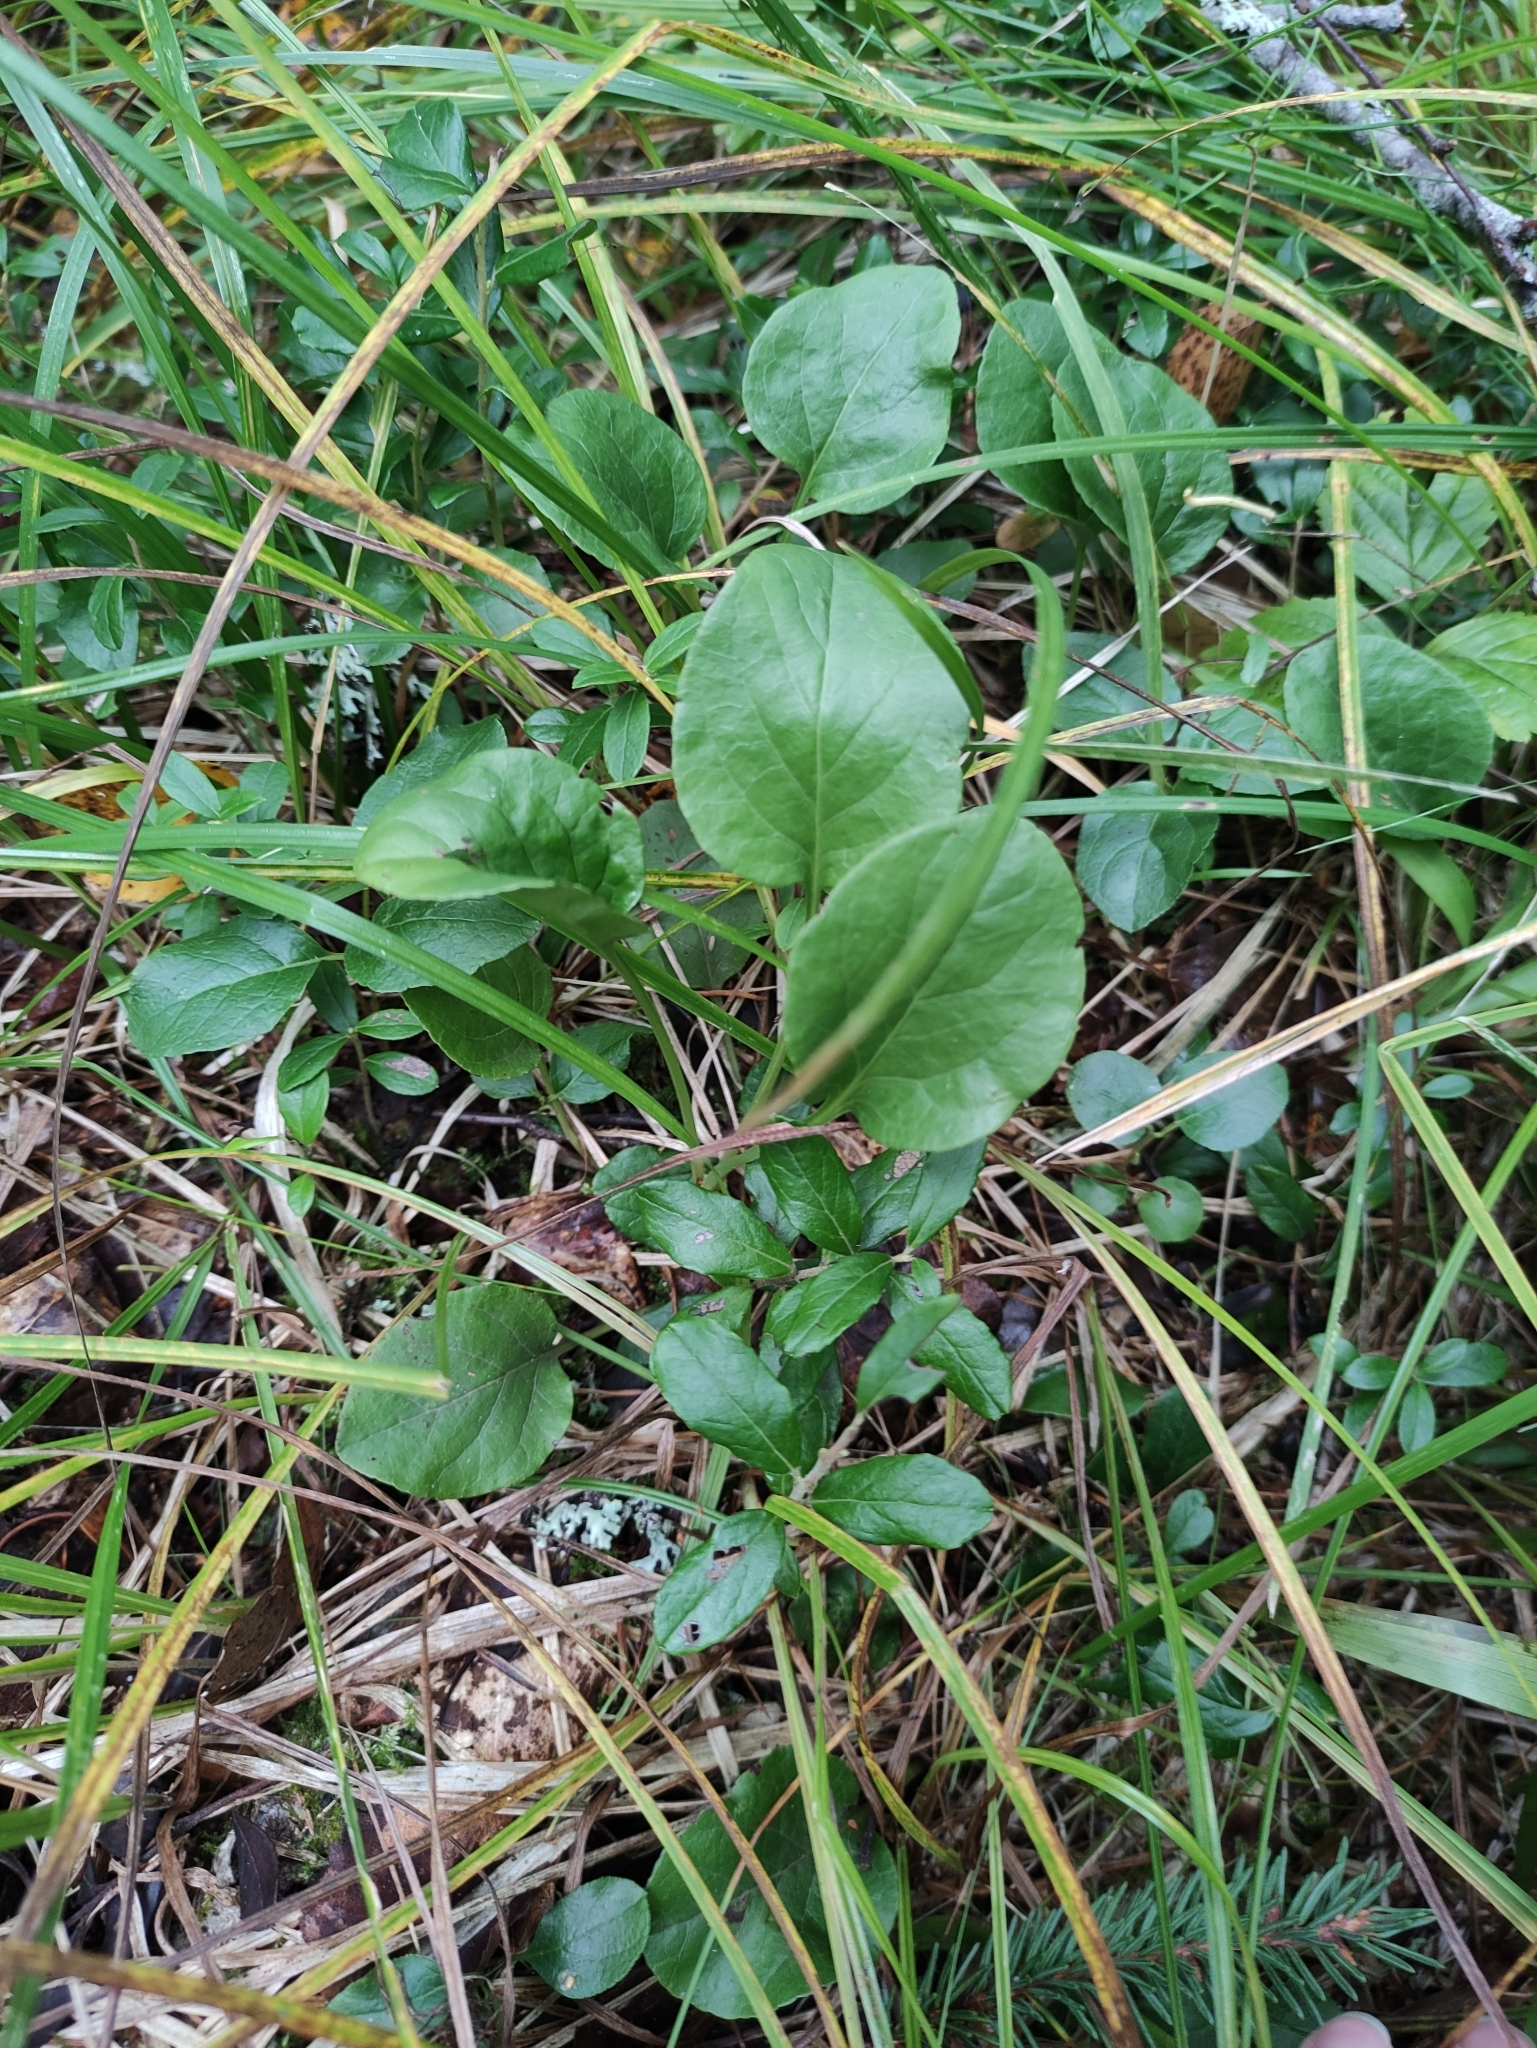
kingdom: Plantae
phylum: Tracheophyta
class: Magnoliopsida
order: Ericales
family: Ericaceae
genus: Pyrola
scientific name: Pyrola
